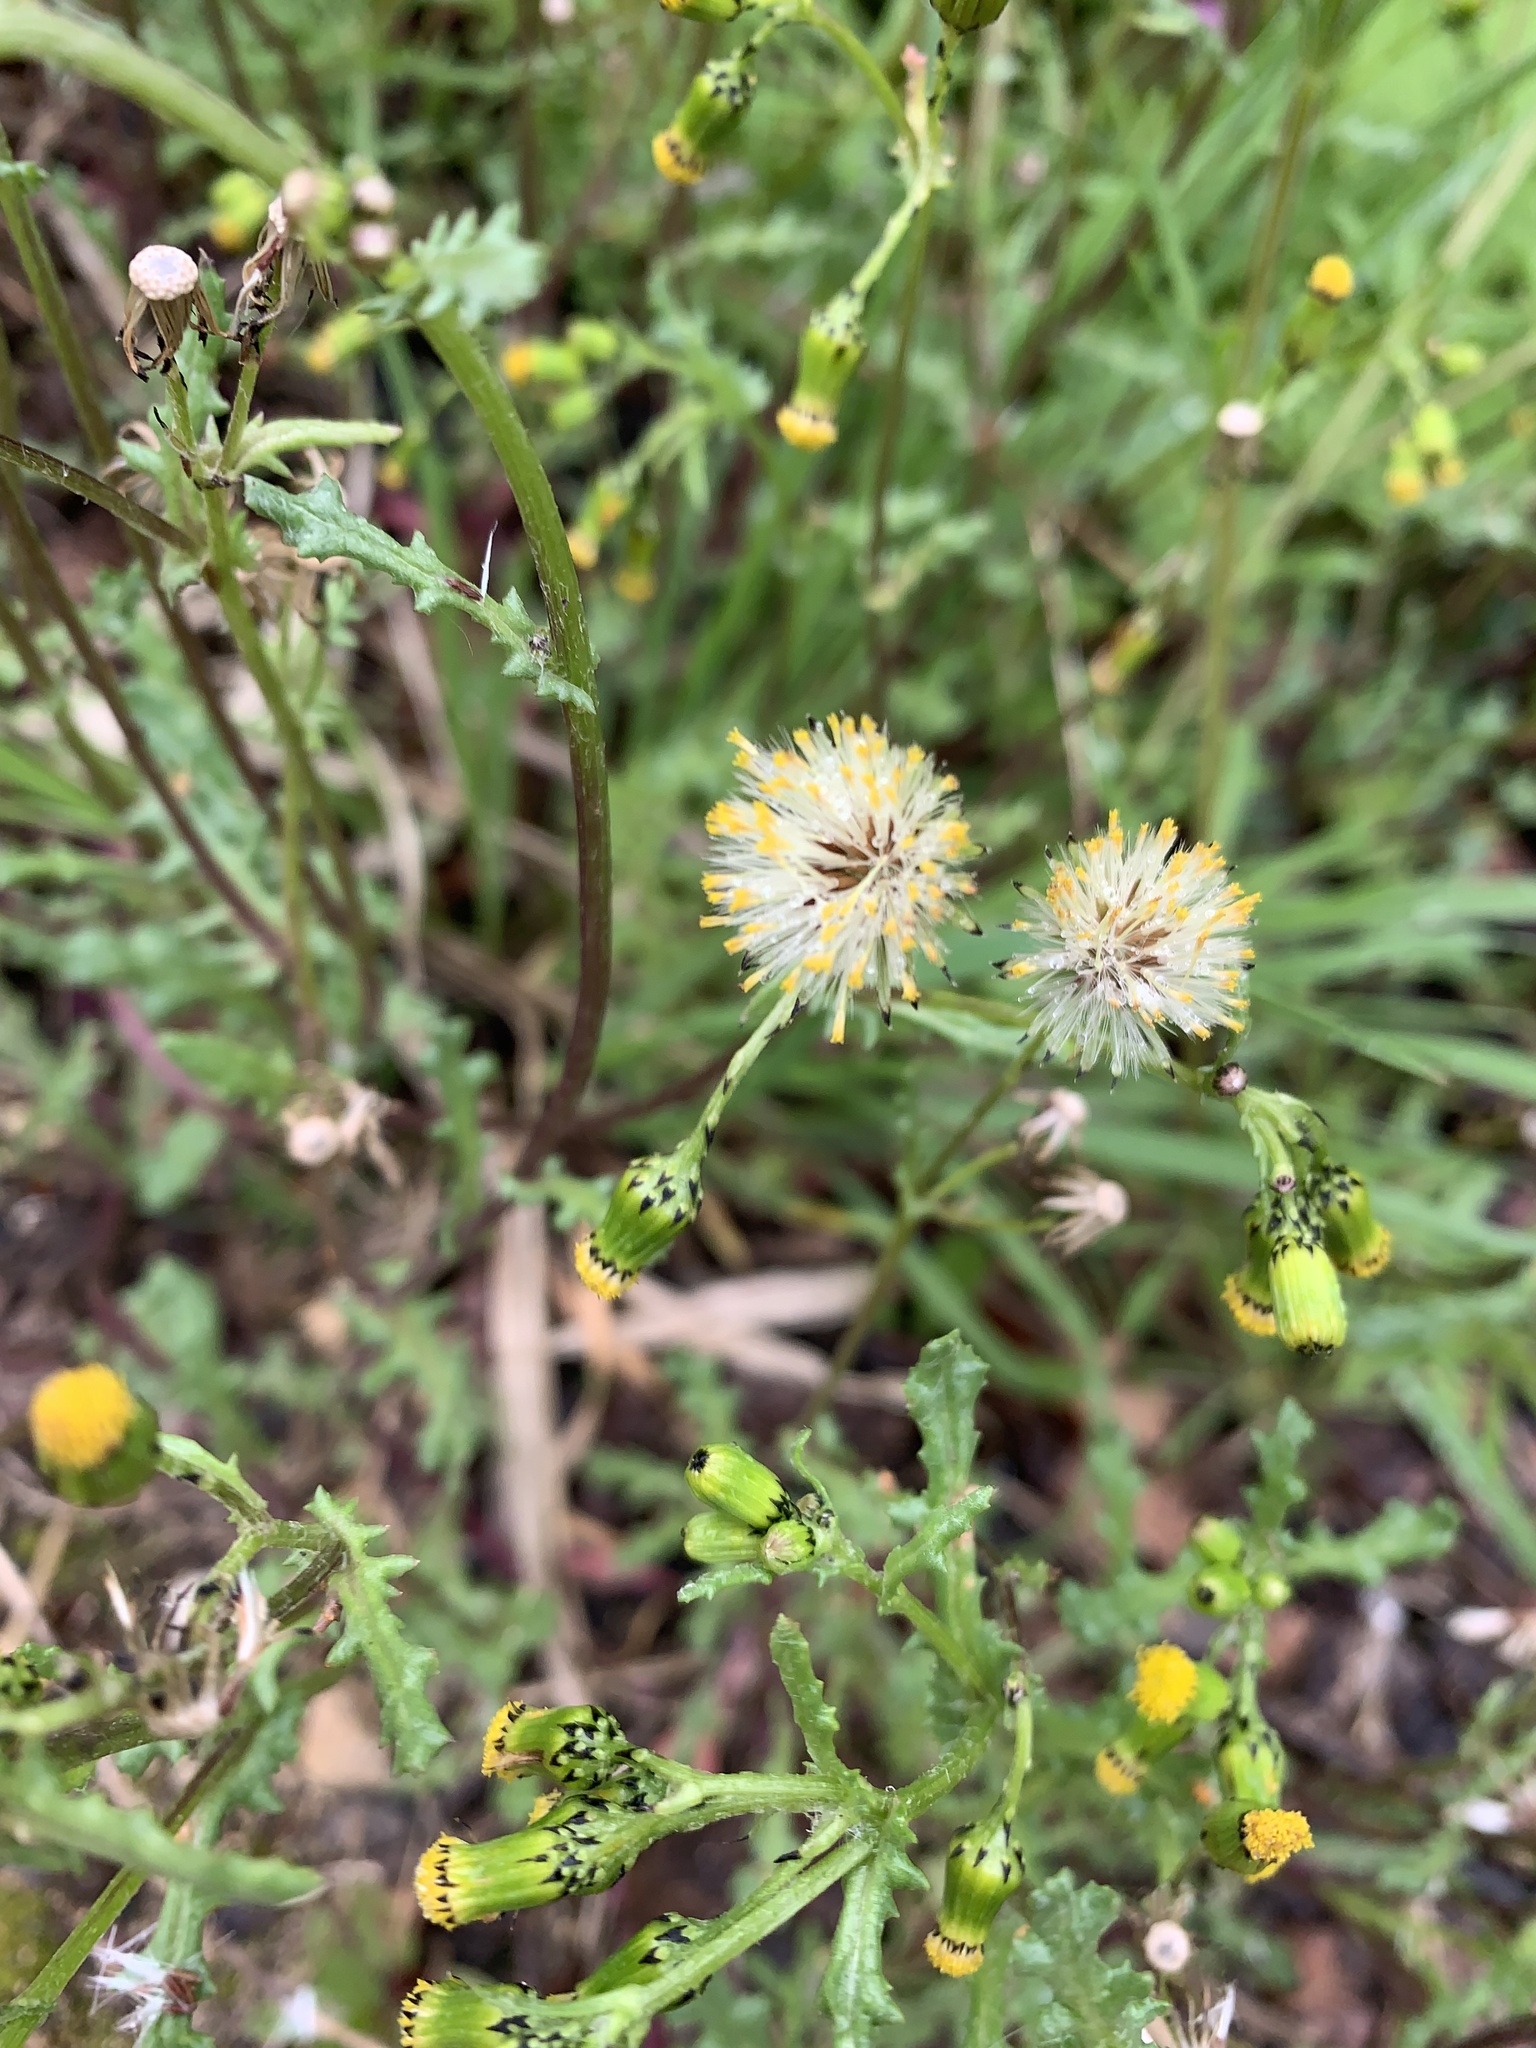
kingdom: Plantae
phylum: Tracheophyta
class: Magnoliopsida
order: Asterales
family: Asteraceae
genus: Senecio
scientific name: Senecio vulgaris
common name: Old-man-in-the-spring
